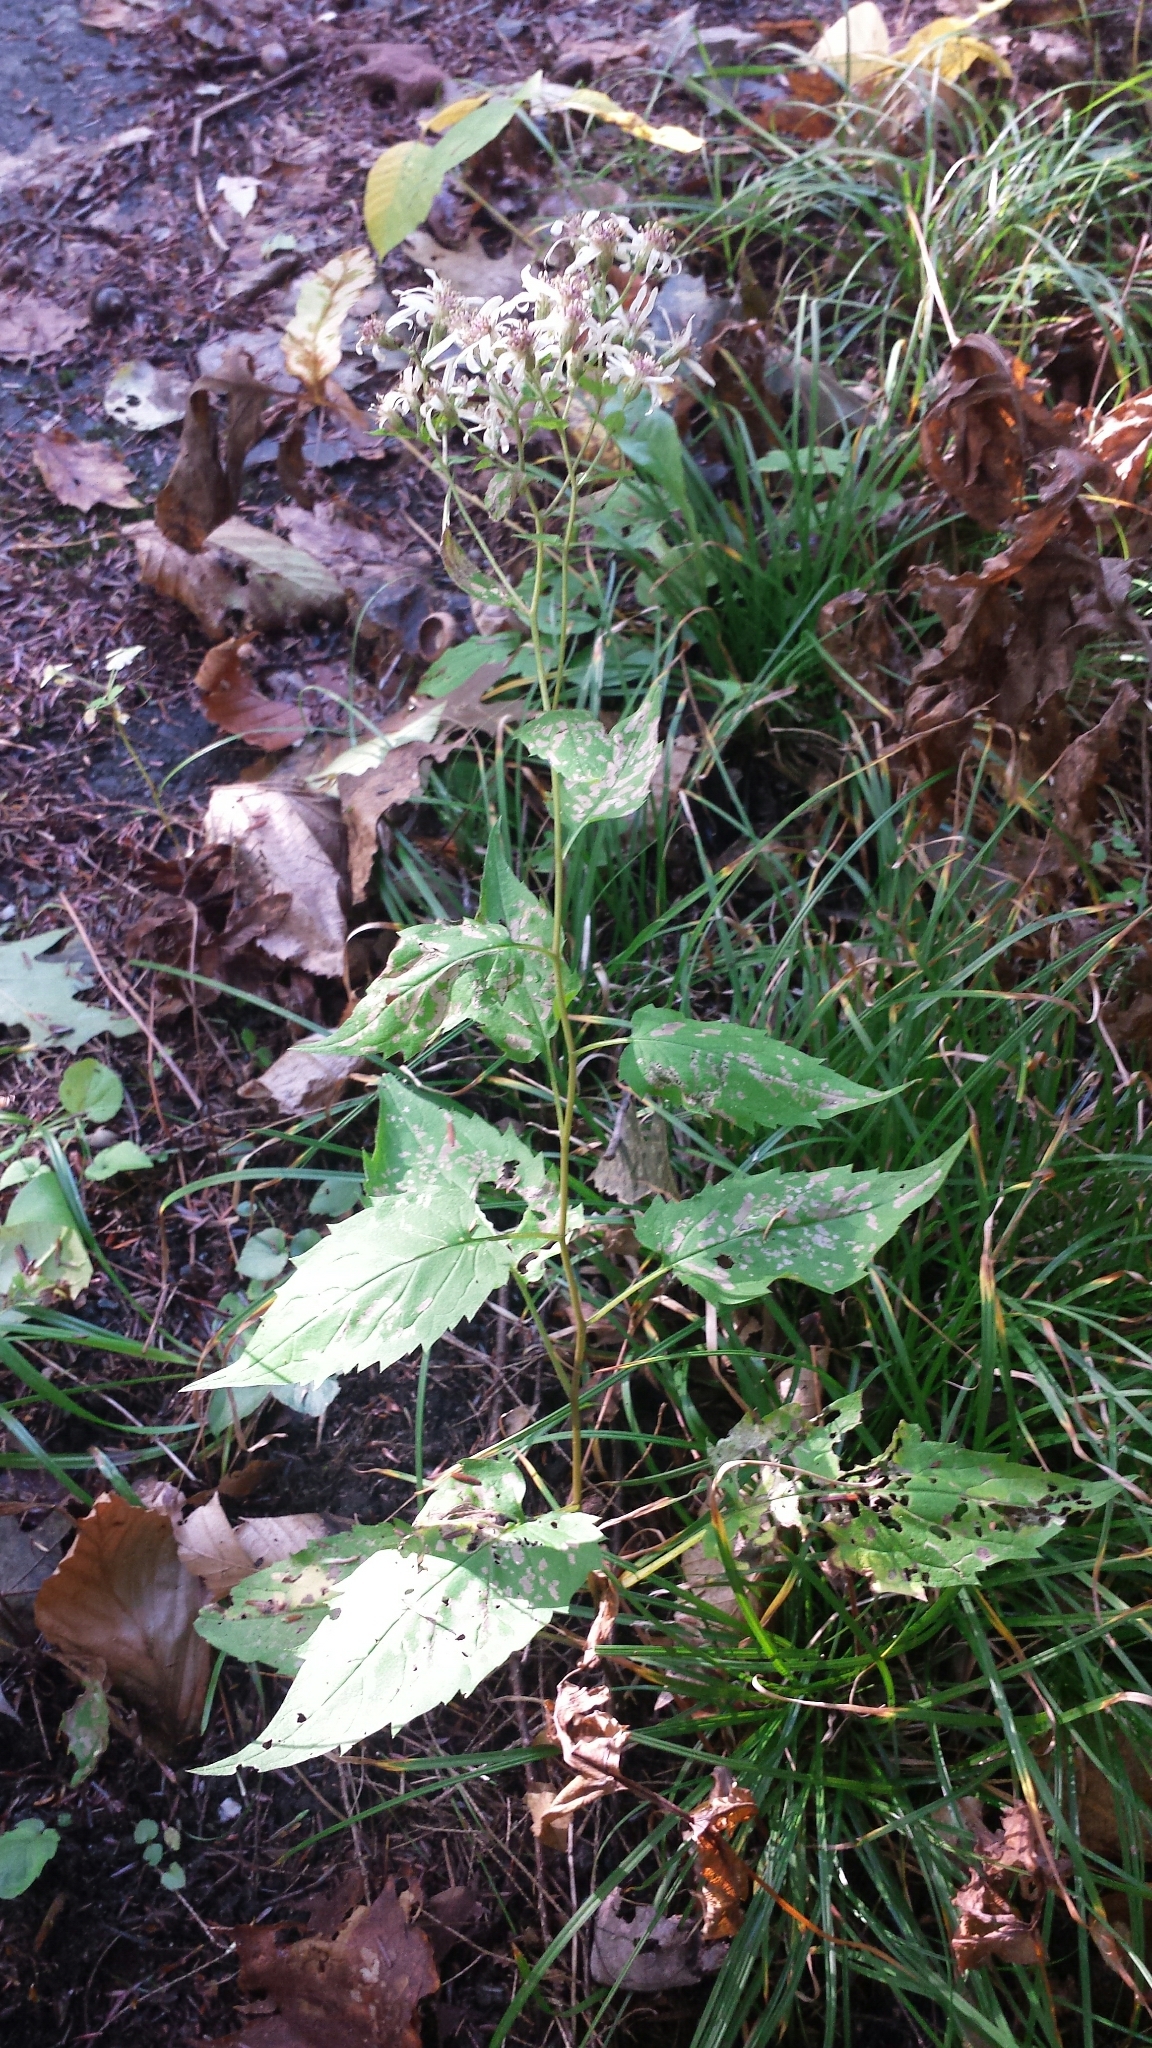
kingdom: Plantae
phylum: Tracheophyta
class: Magnoliopsida
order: Asterales
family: Asteraceae
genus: Eurybia
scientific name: Eurybia divaricata
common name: White wood aster
